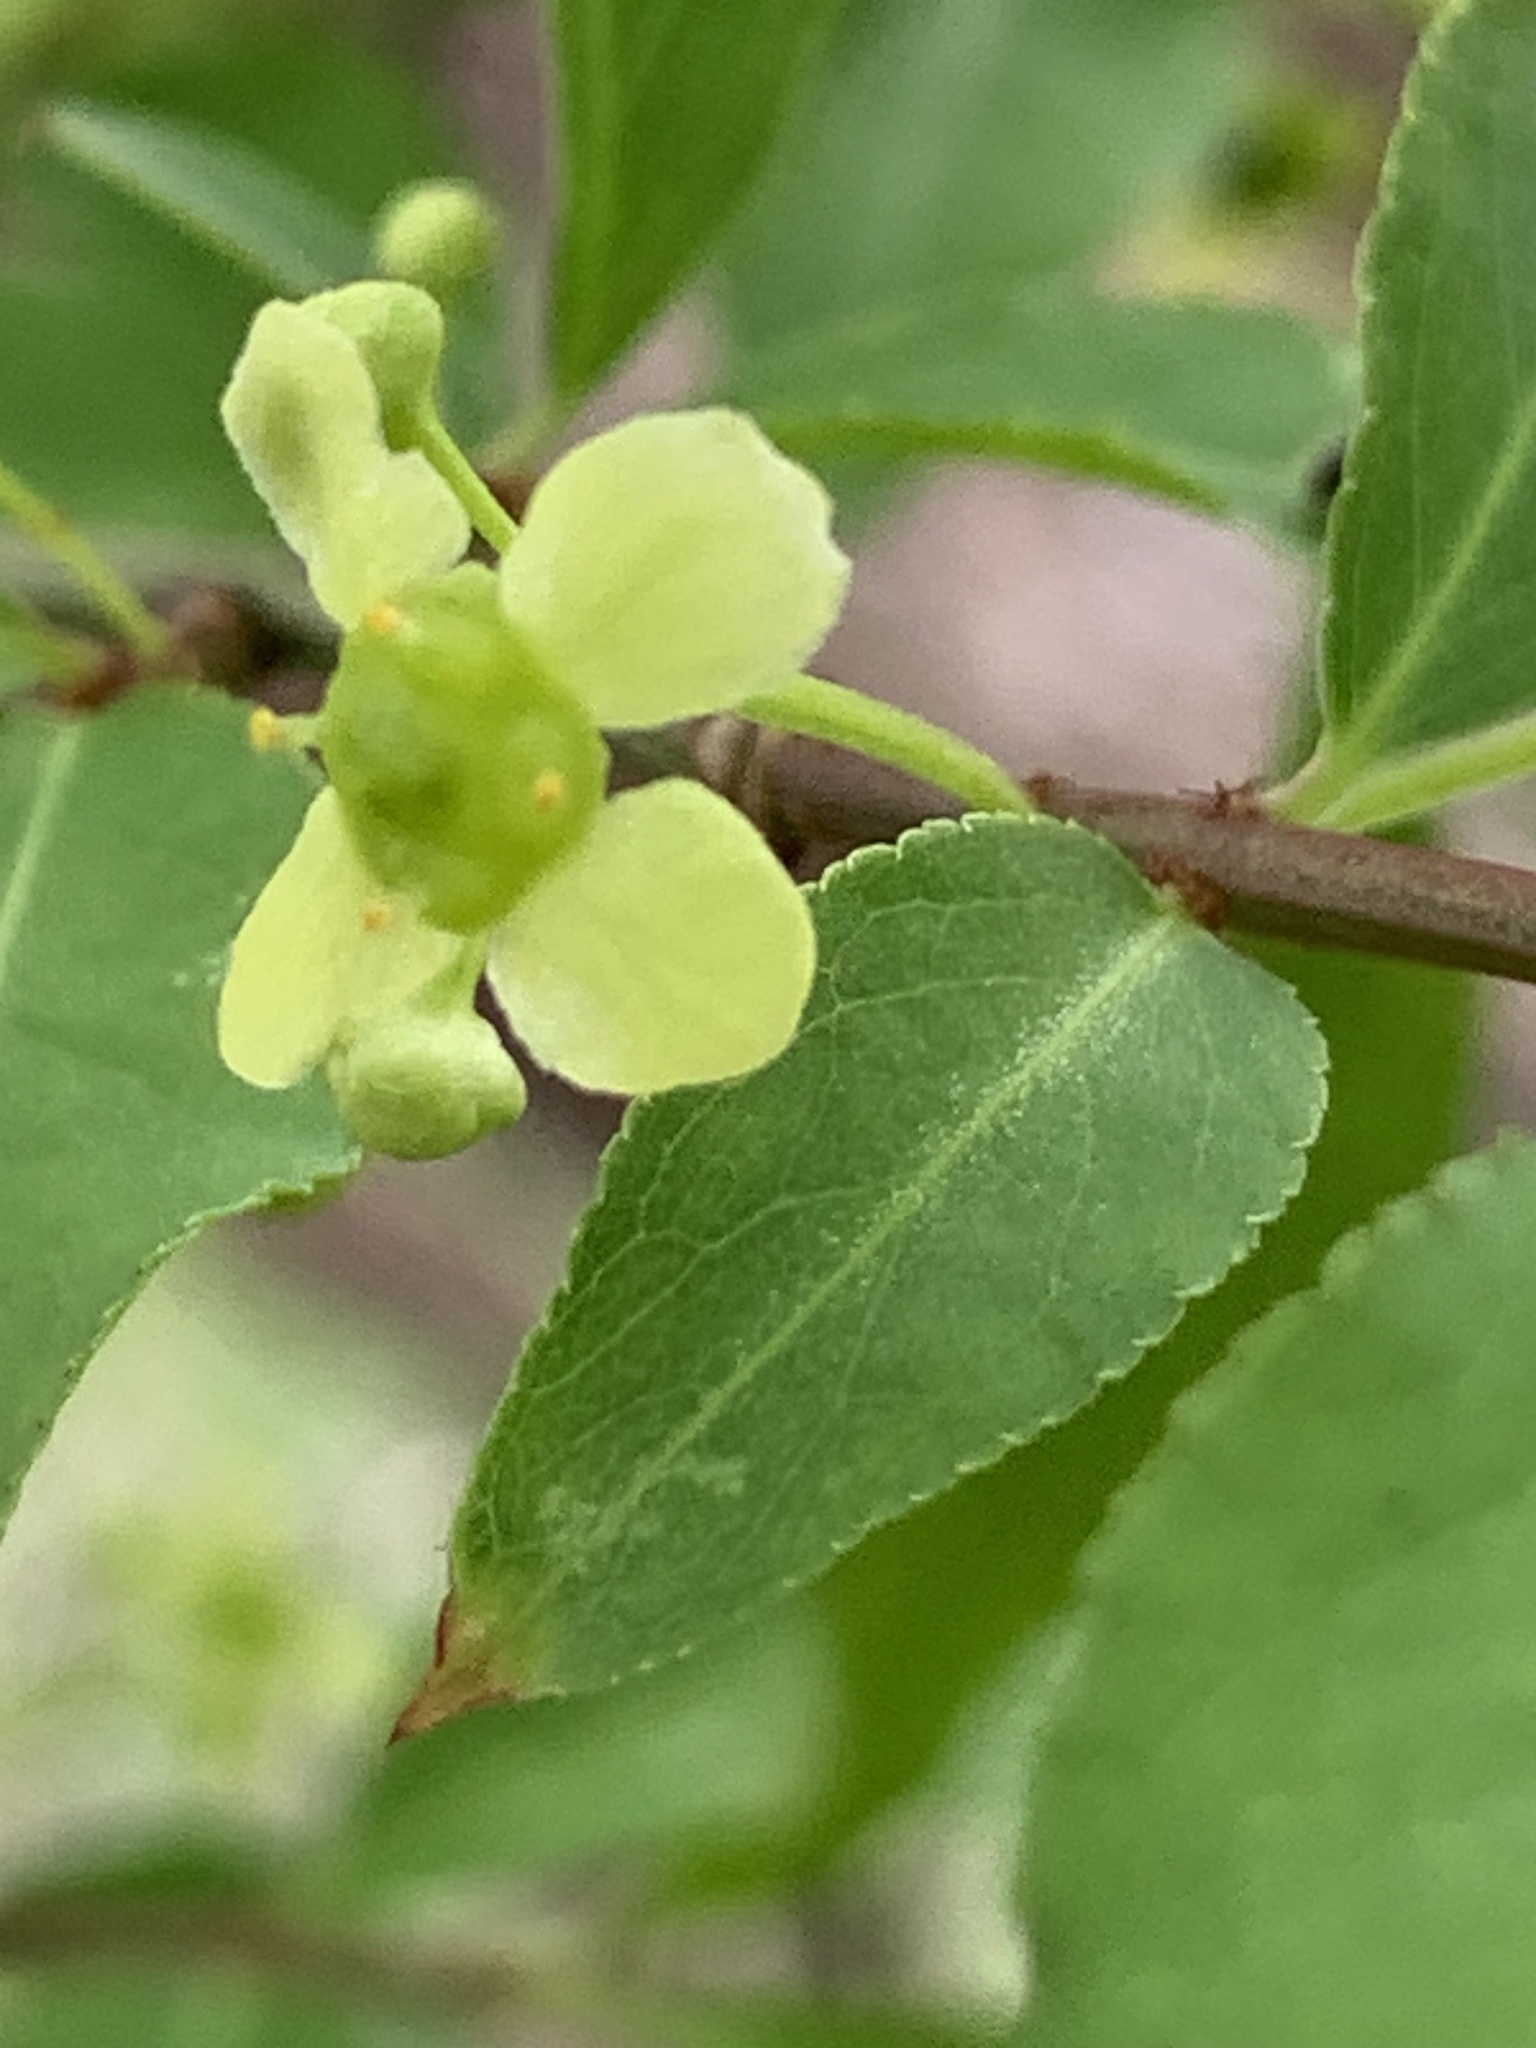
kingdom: Plantae
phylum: Tracheophyta
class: Magnoliopsida
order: Celastrales
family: Celastraceae
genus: Euonymus
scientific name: Euonymus alatus
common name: Winged euonymus
